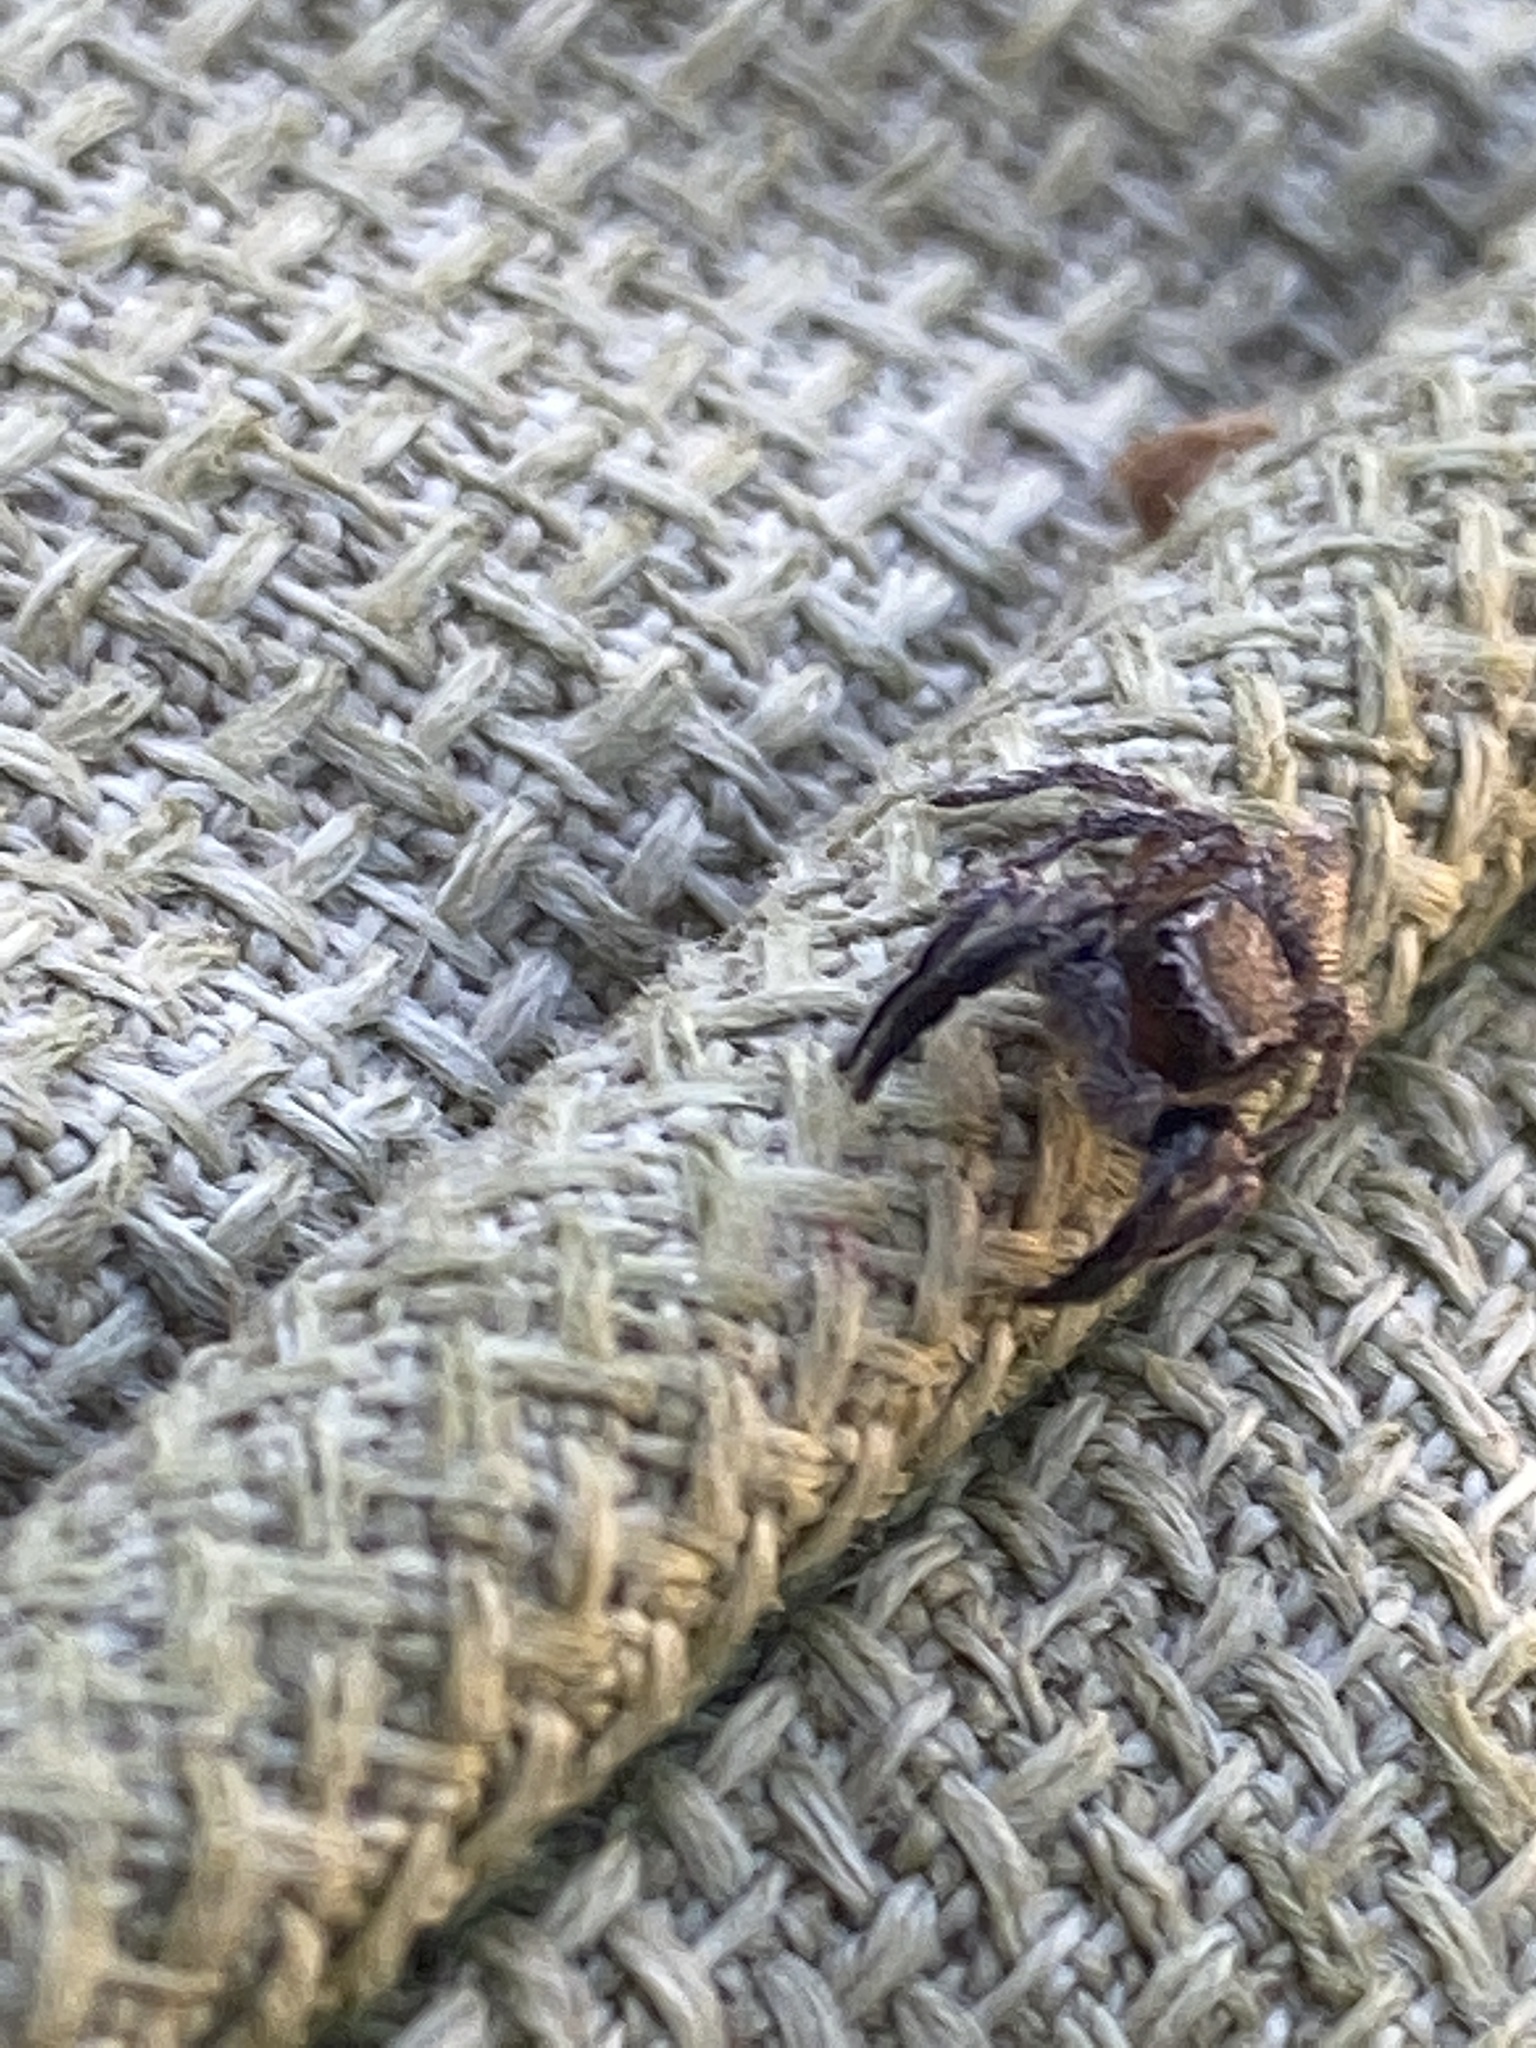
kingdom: Animalia
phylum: Arthropoda
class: Arachnida
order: Araneae
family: Salticidae
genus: Habronattus
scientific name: Habronattus hirsutus
